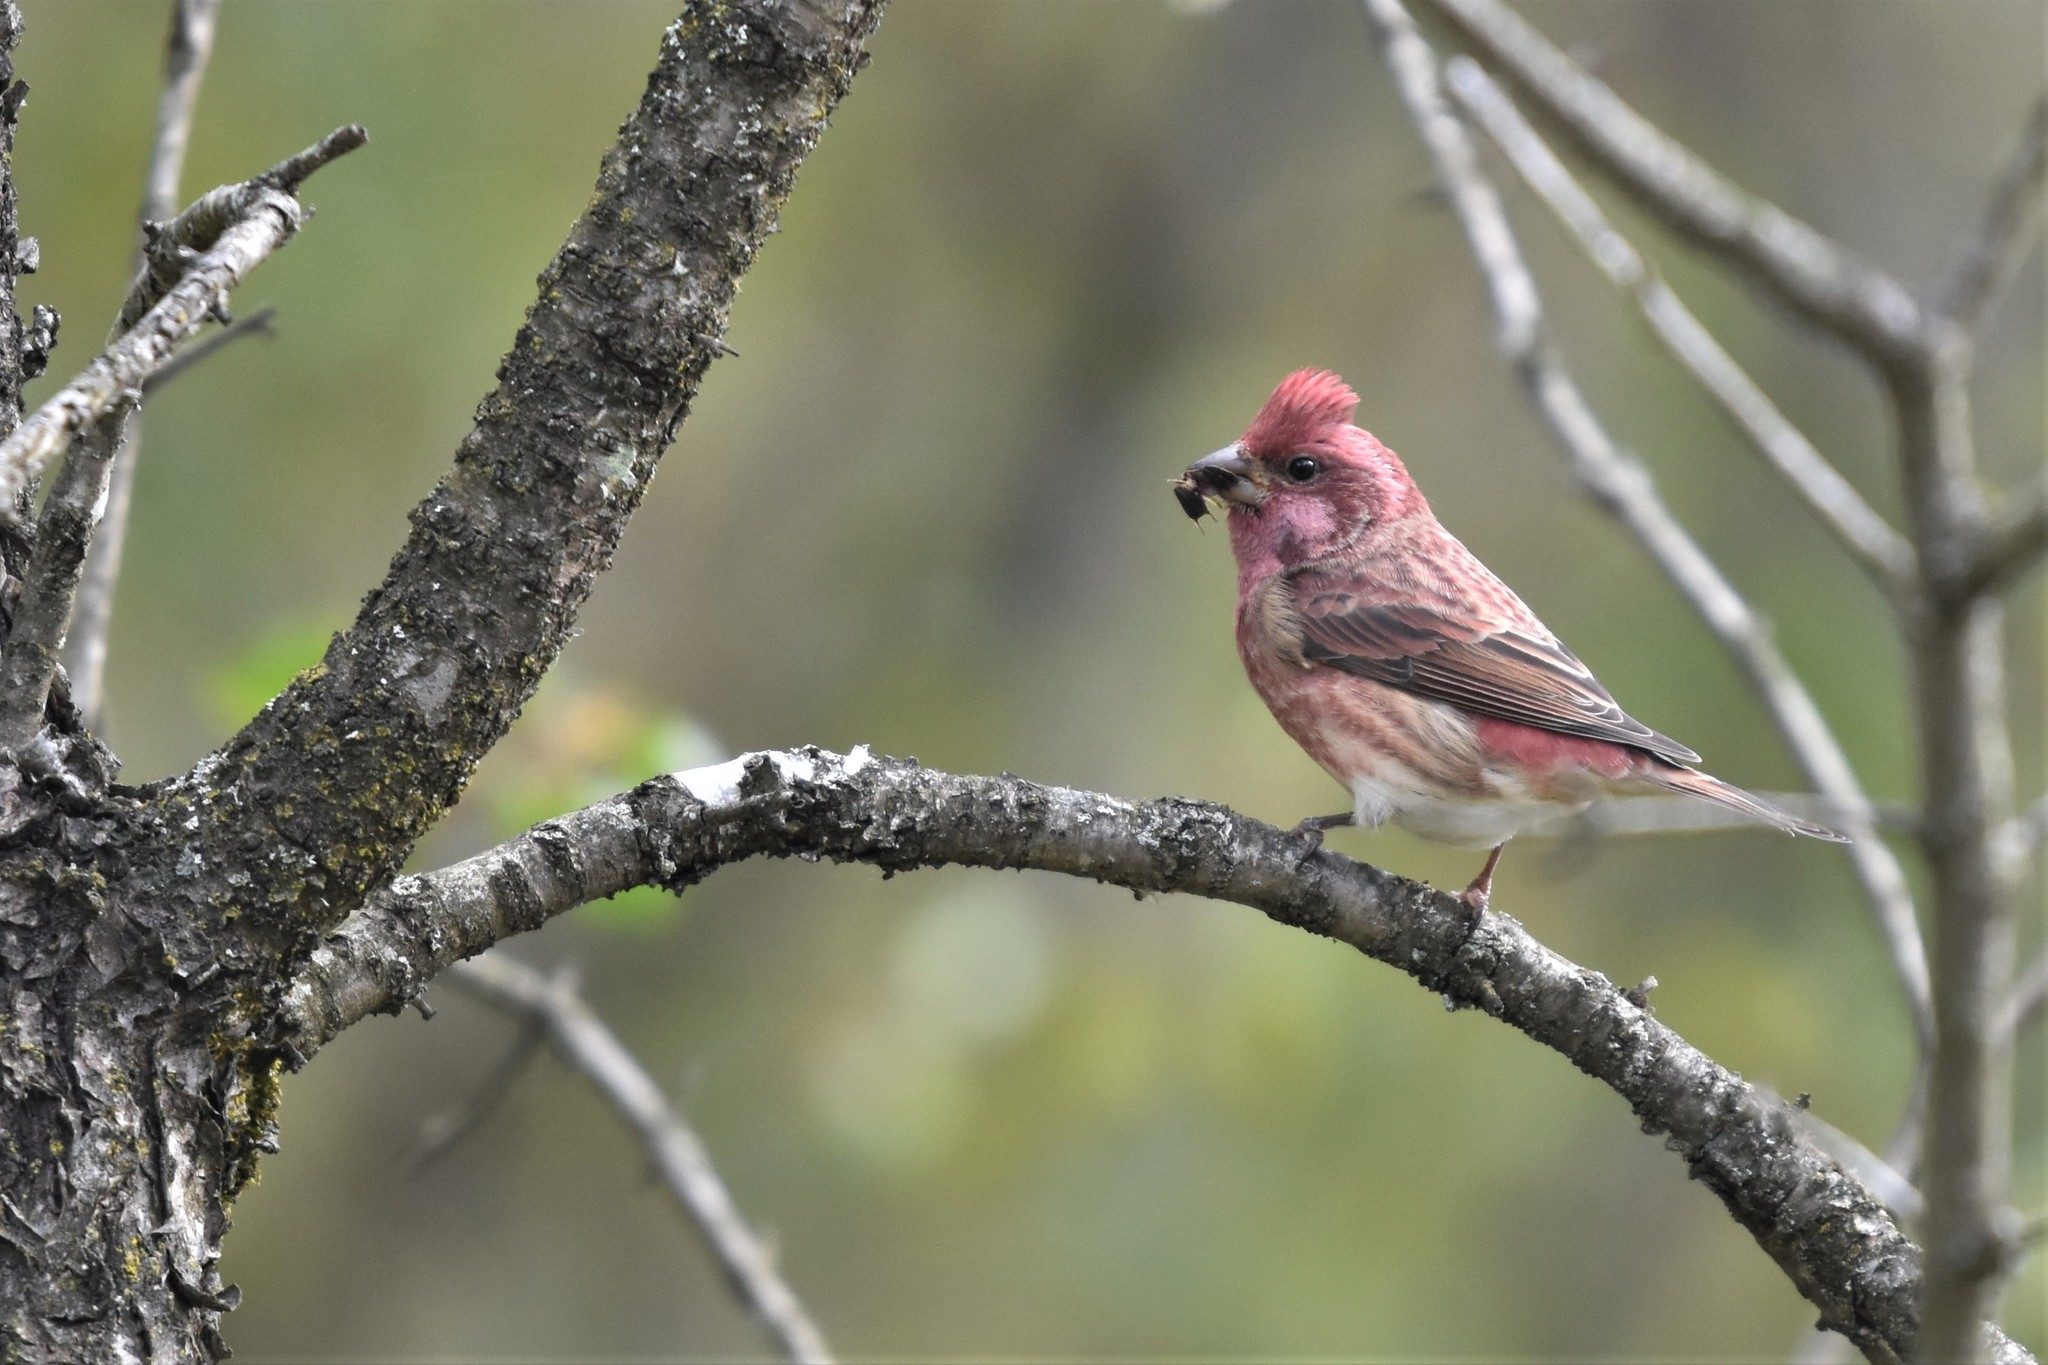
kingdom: Animalia
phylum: Chordata
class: Aves
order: Passeriformes
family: Fringillidae
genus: Haemorhous
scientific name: Haemorhous purpureus
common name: Purple finch
